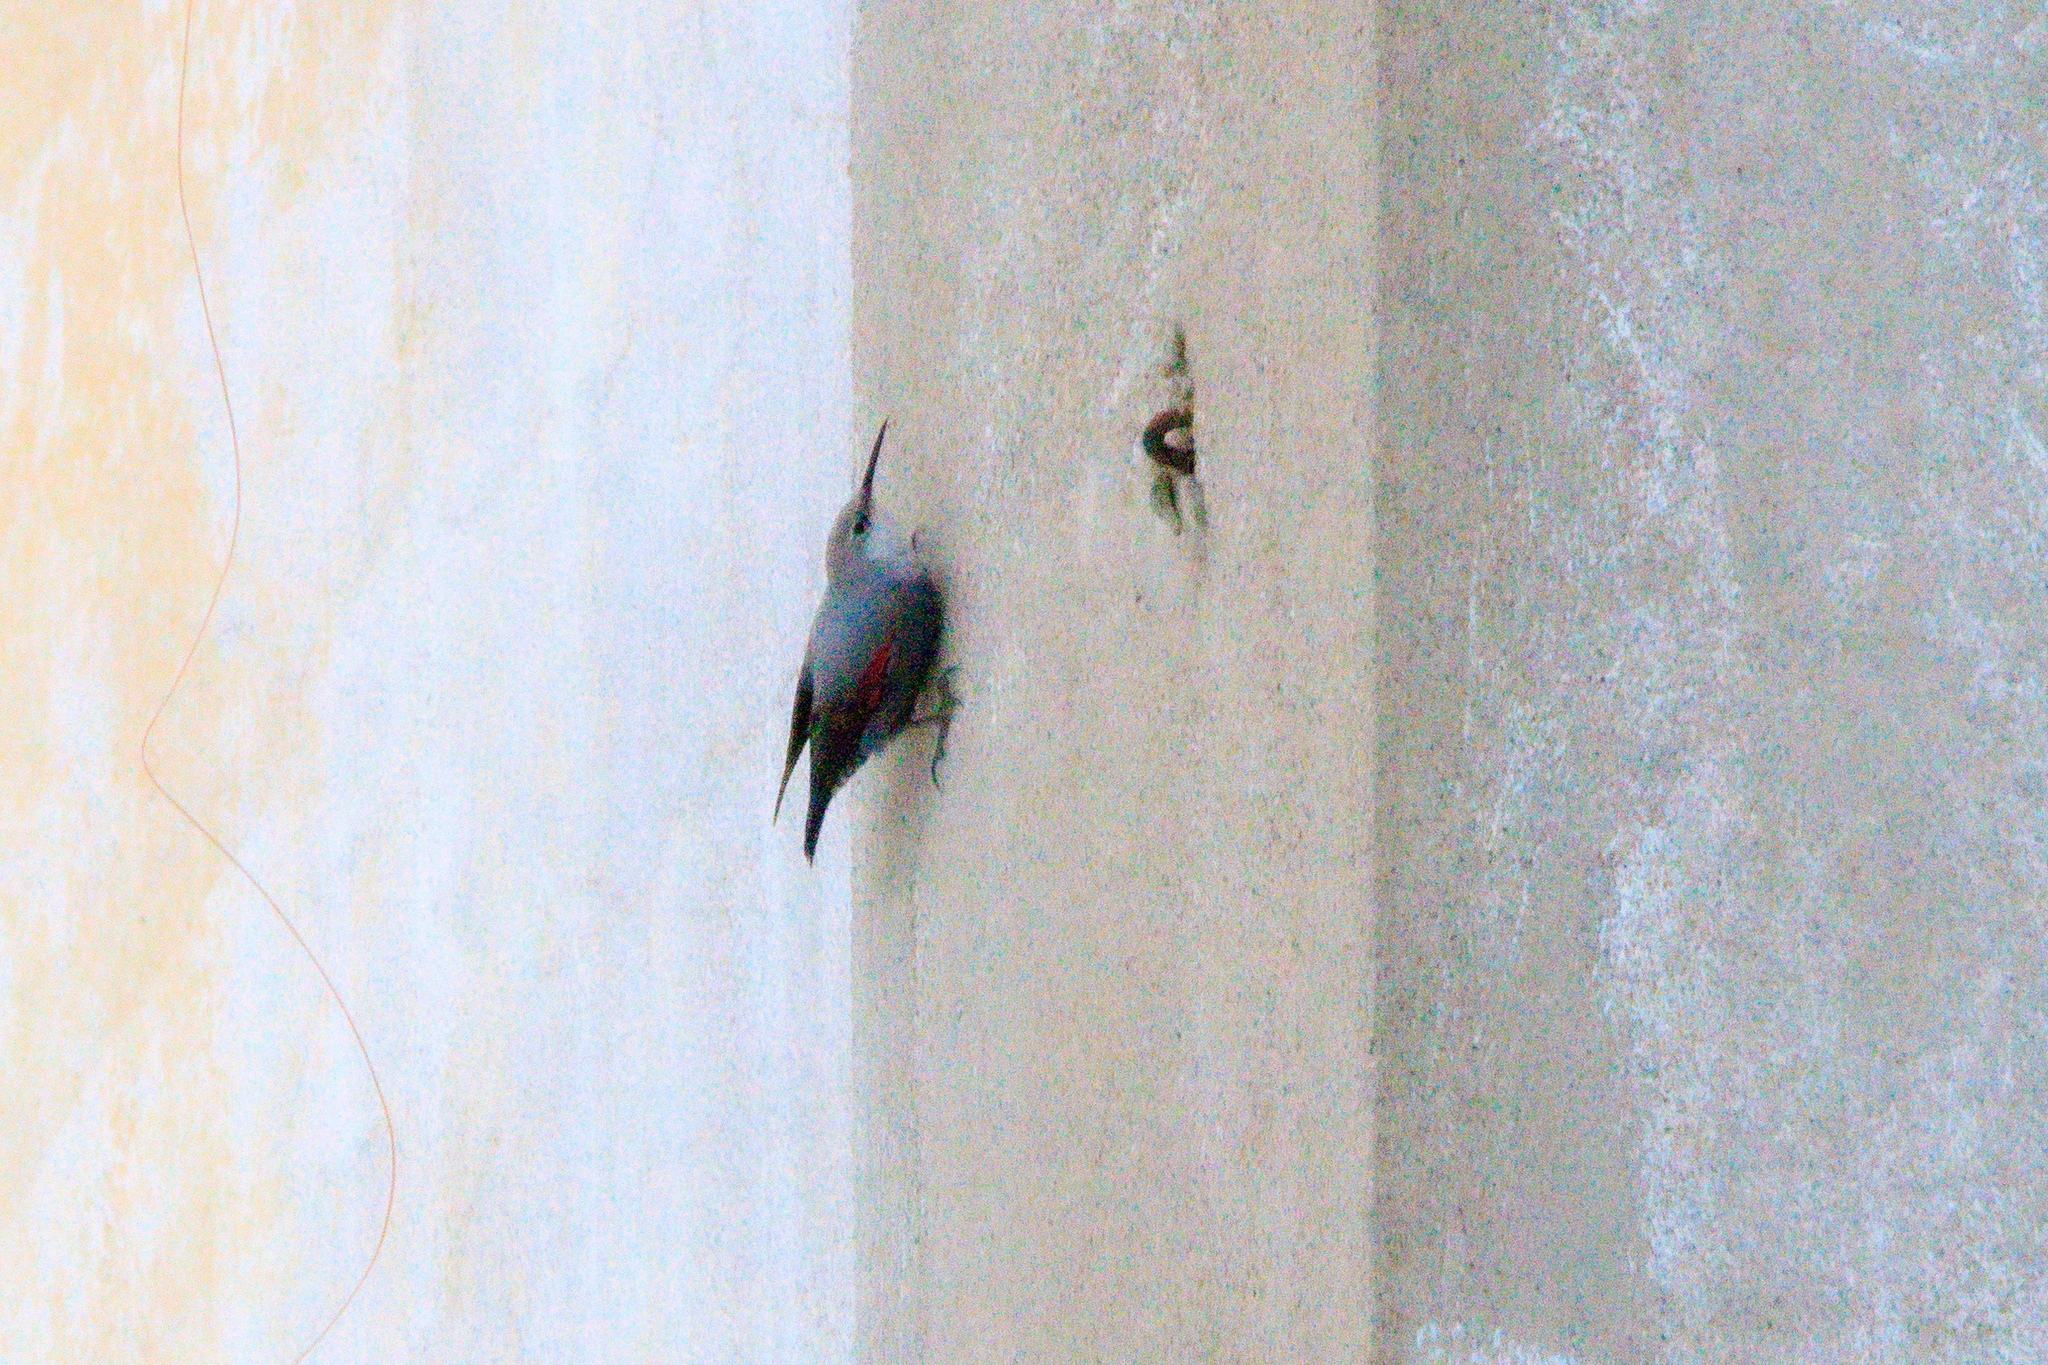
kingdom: Animalia
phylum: Chordata
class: Aves
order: Passeriformes
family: Tichodromidae
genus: Tichodroma
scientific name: Tichodroma muraria
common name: Wallcreeper
